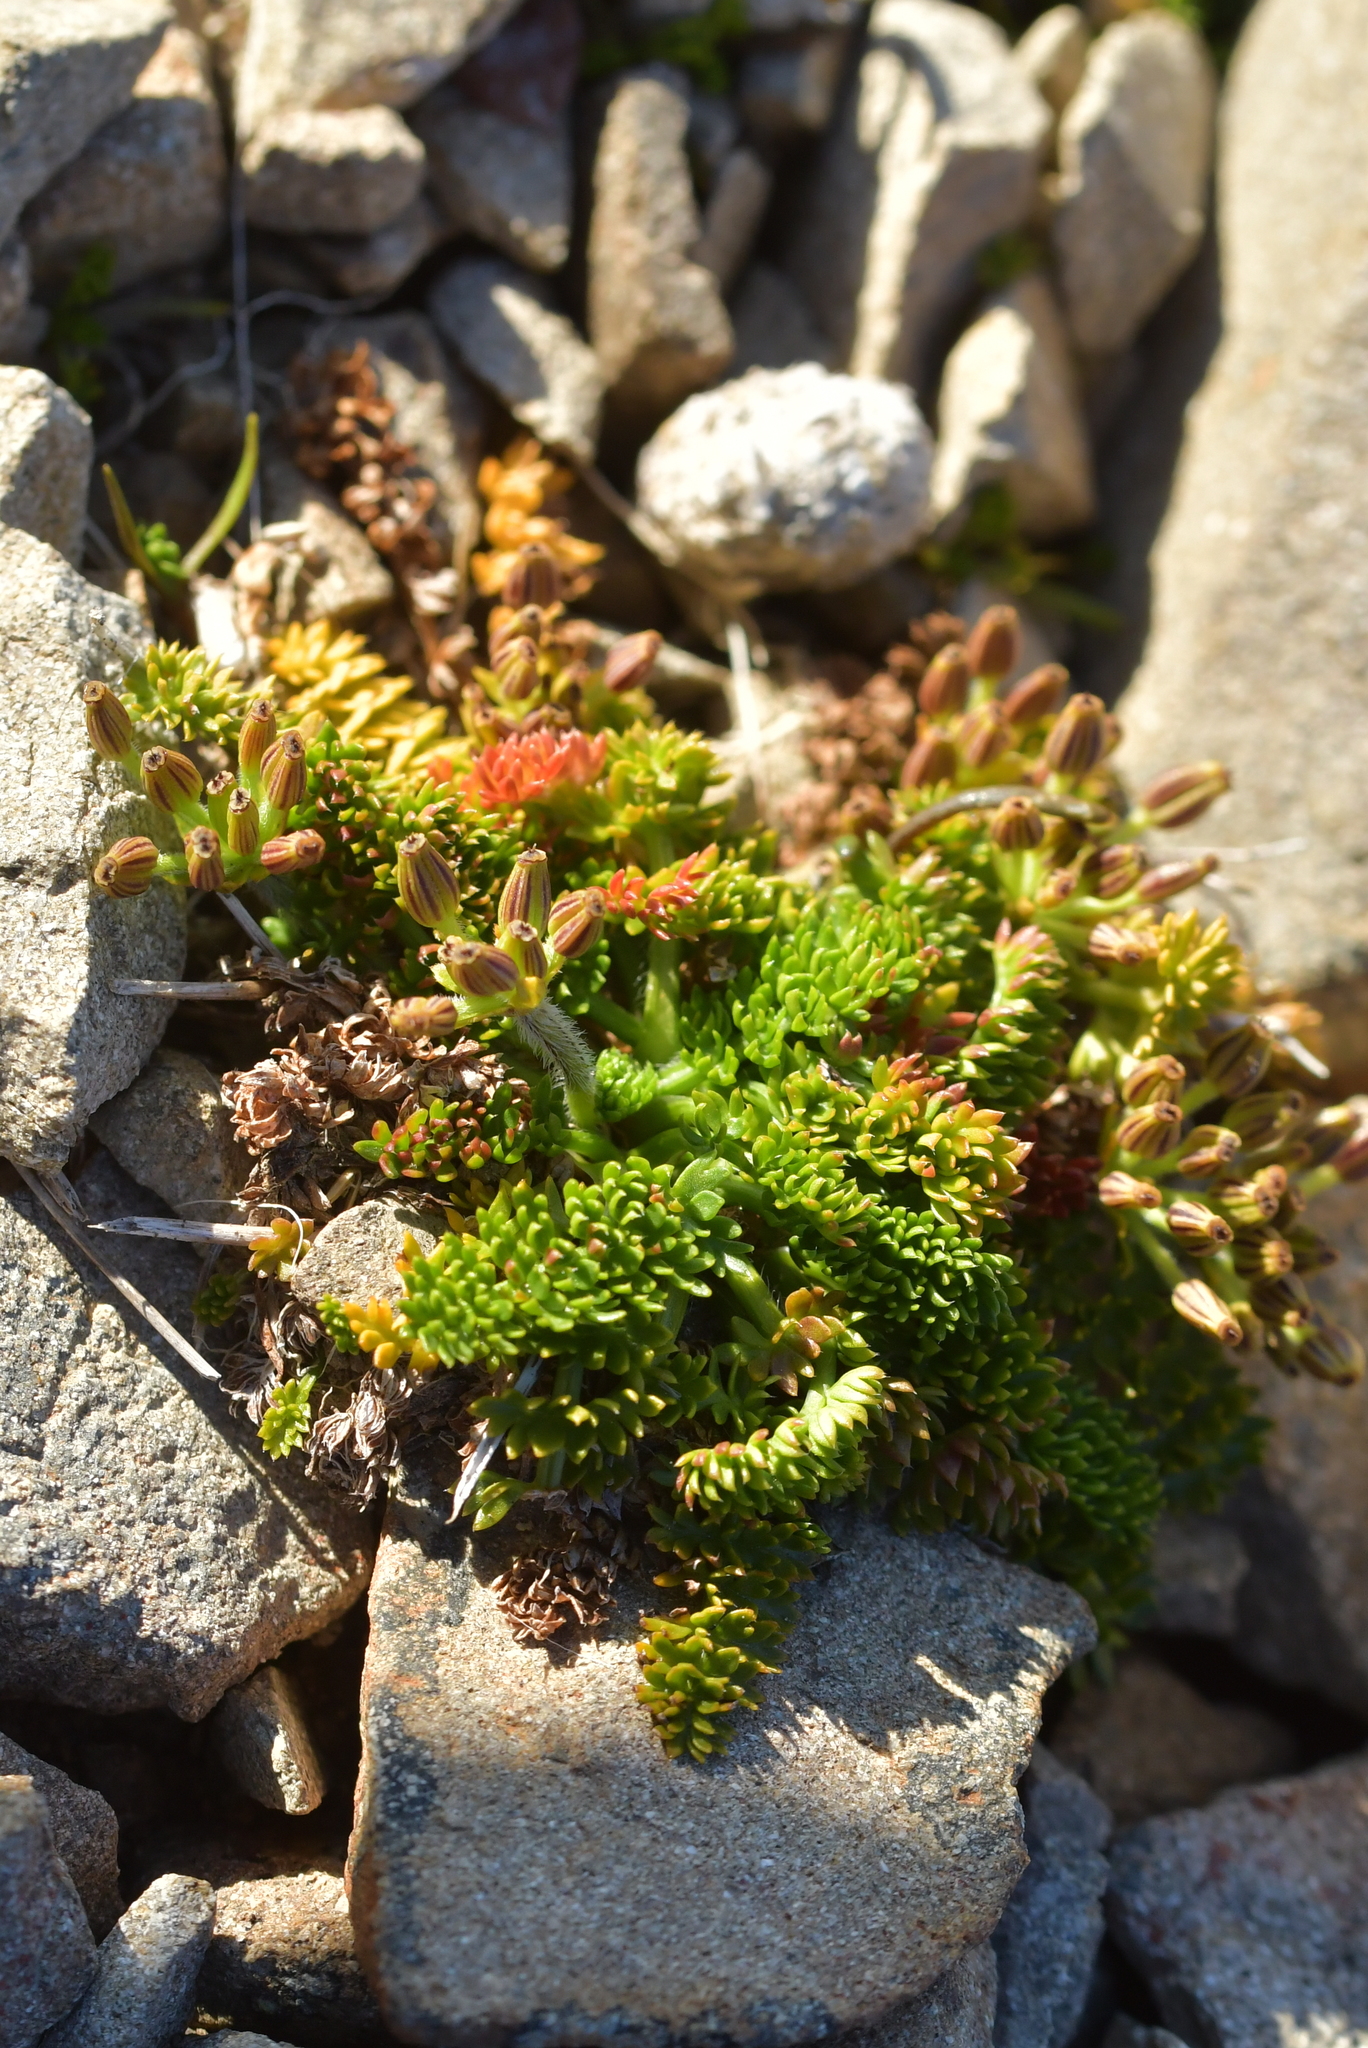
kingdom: Plantae
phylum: Tracheophyta
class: Magnoliopsida
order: Apiales
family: Apiaceae
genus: Chaerophyllum
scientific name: Chaerophyllum colensoi
